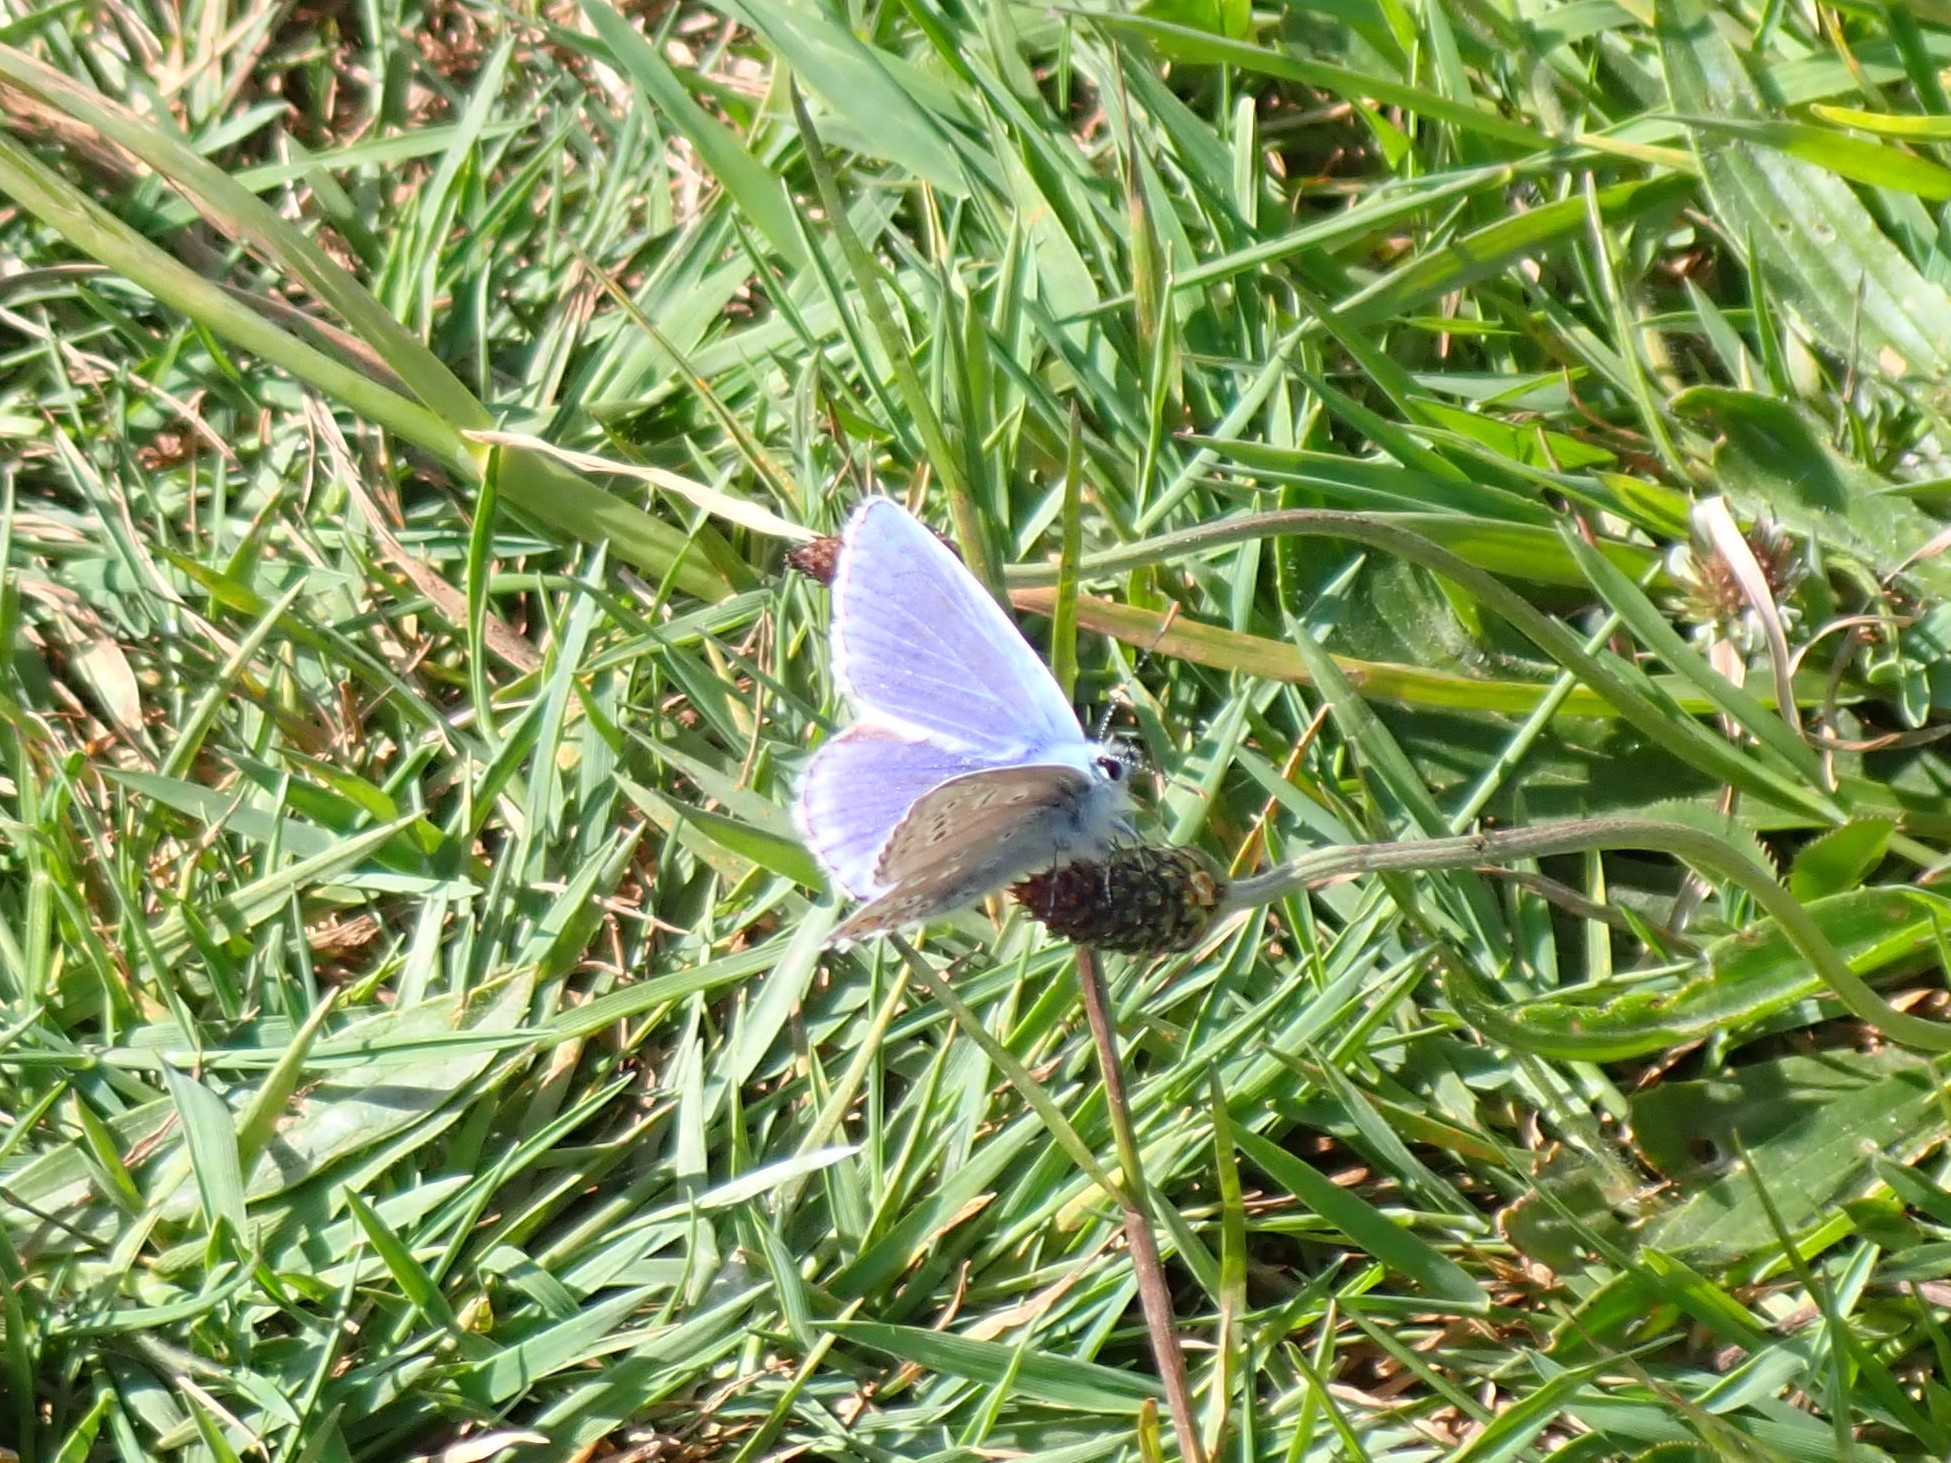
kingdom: Animalia
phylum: Arthropoda
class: Insecta
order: Lepidoptera
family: Lycaenidae
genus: Polyommatus
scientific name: Polyommatus icarus
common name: Common blue
